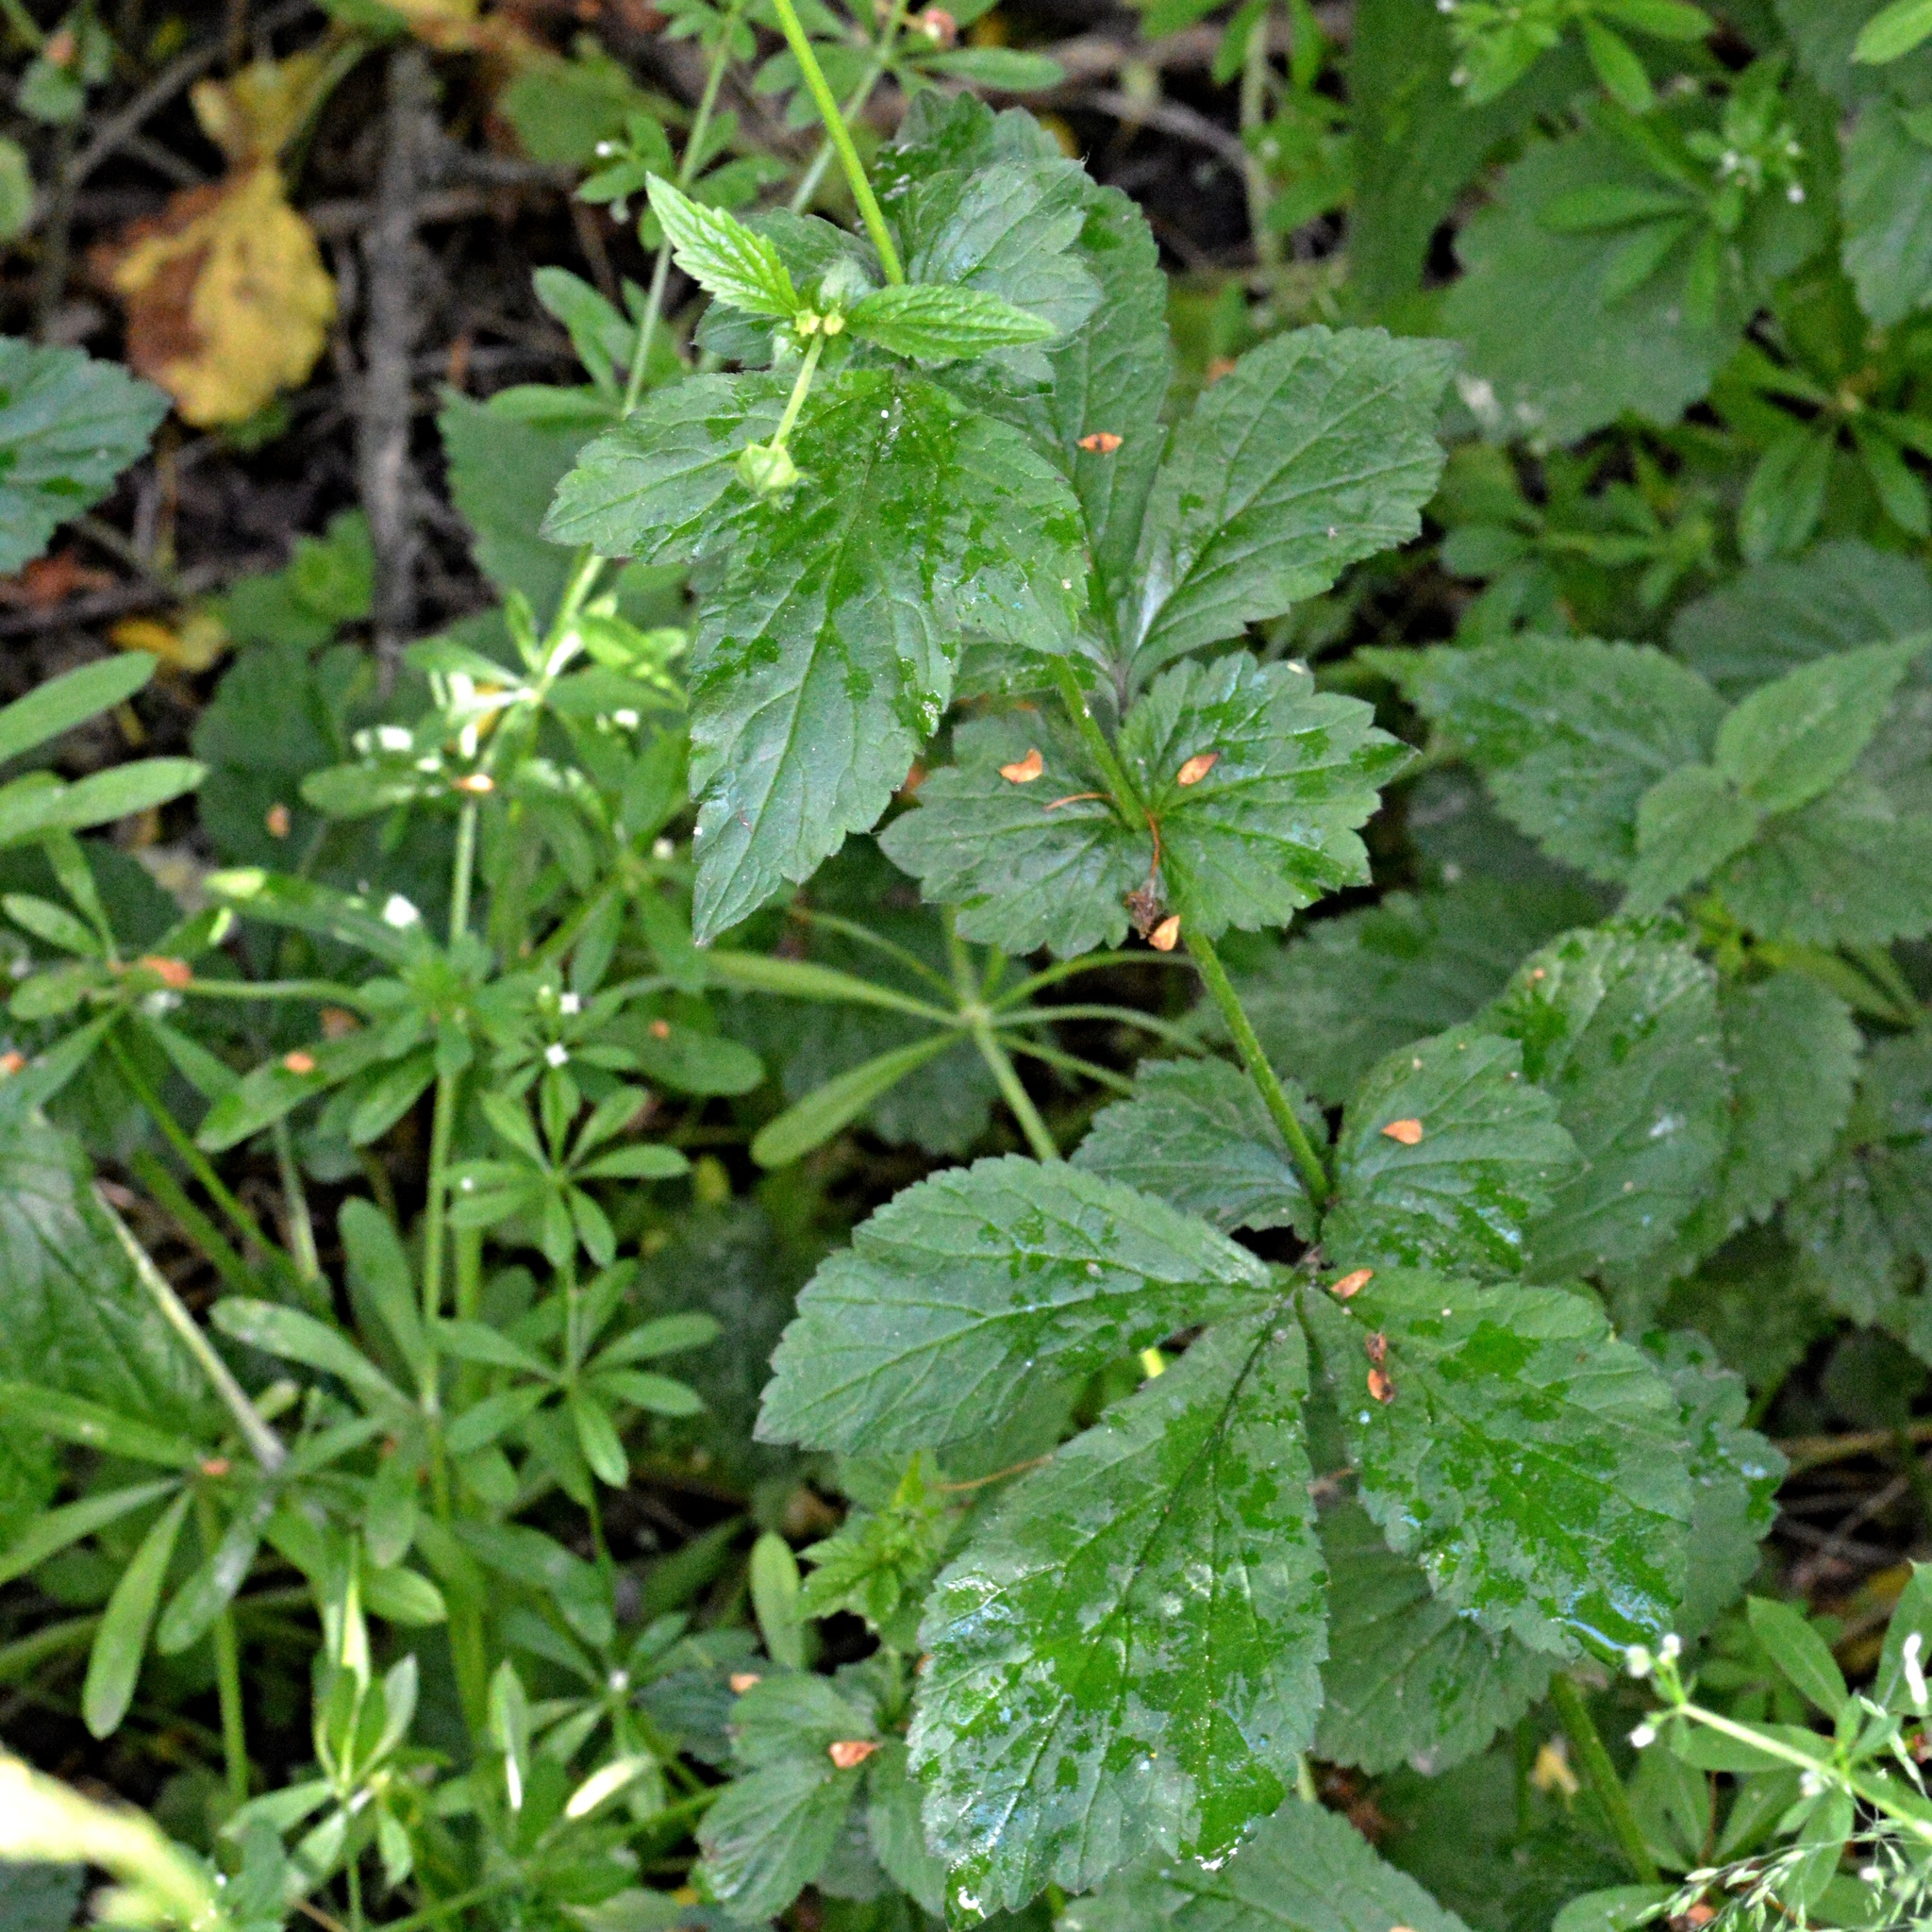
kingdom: Plantae
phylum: Tracheophyta
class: Magnoliopsida
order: Rosales
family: Rosaceae
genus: Geum
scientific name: Geum urbanum
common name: Wood avens
